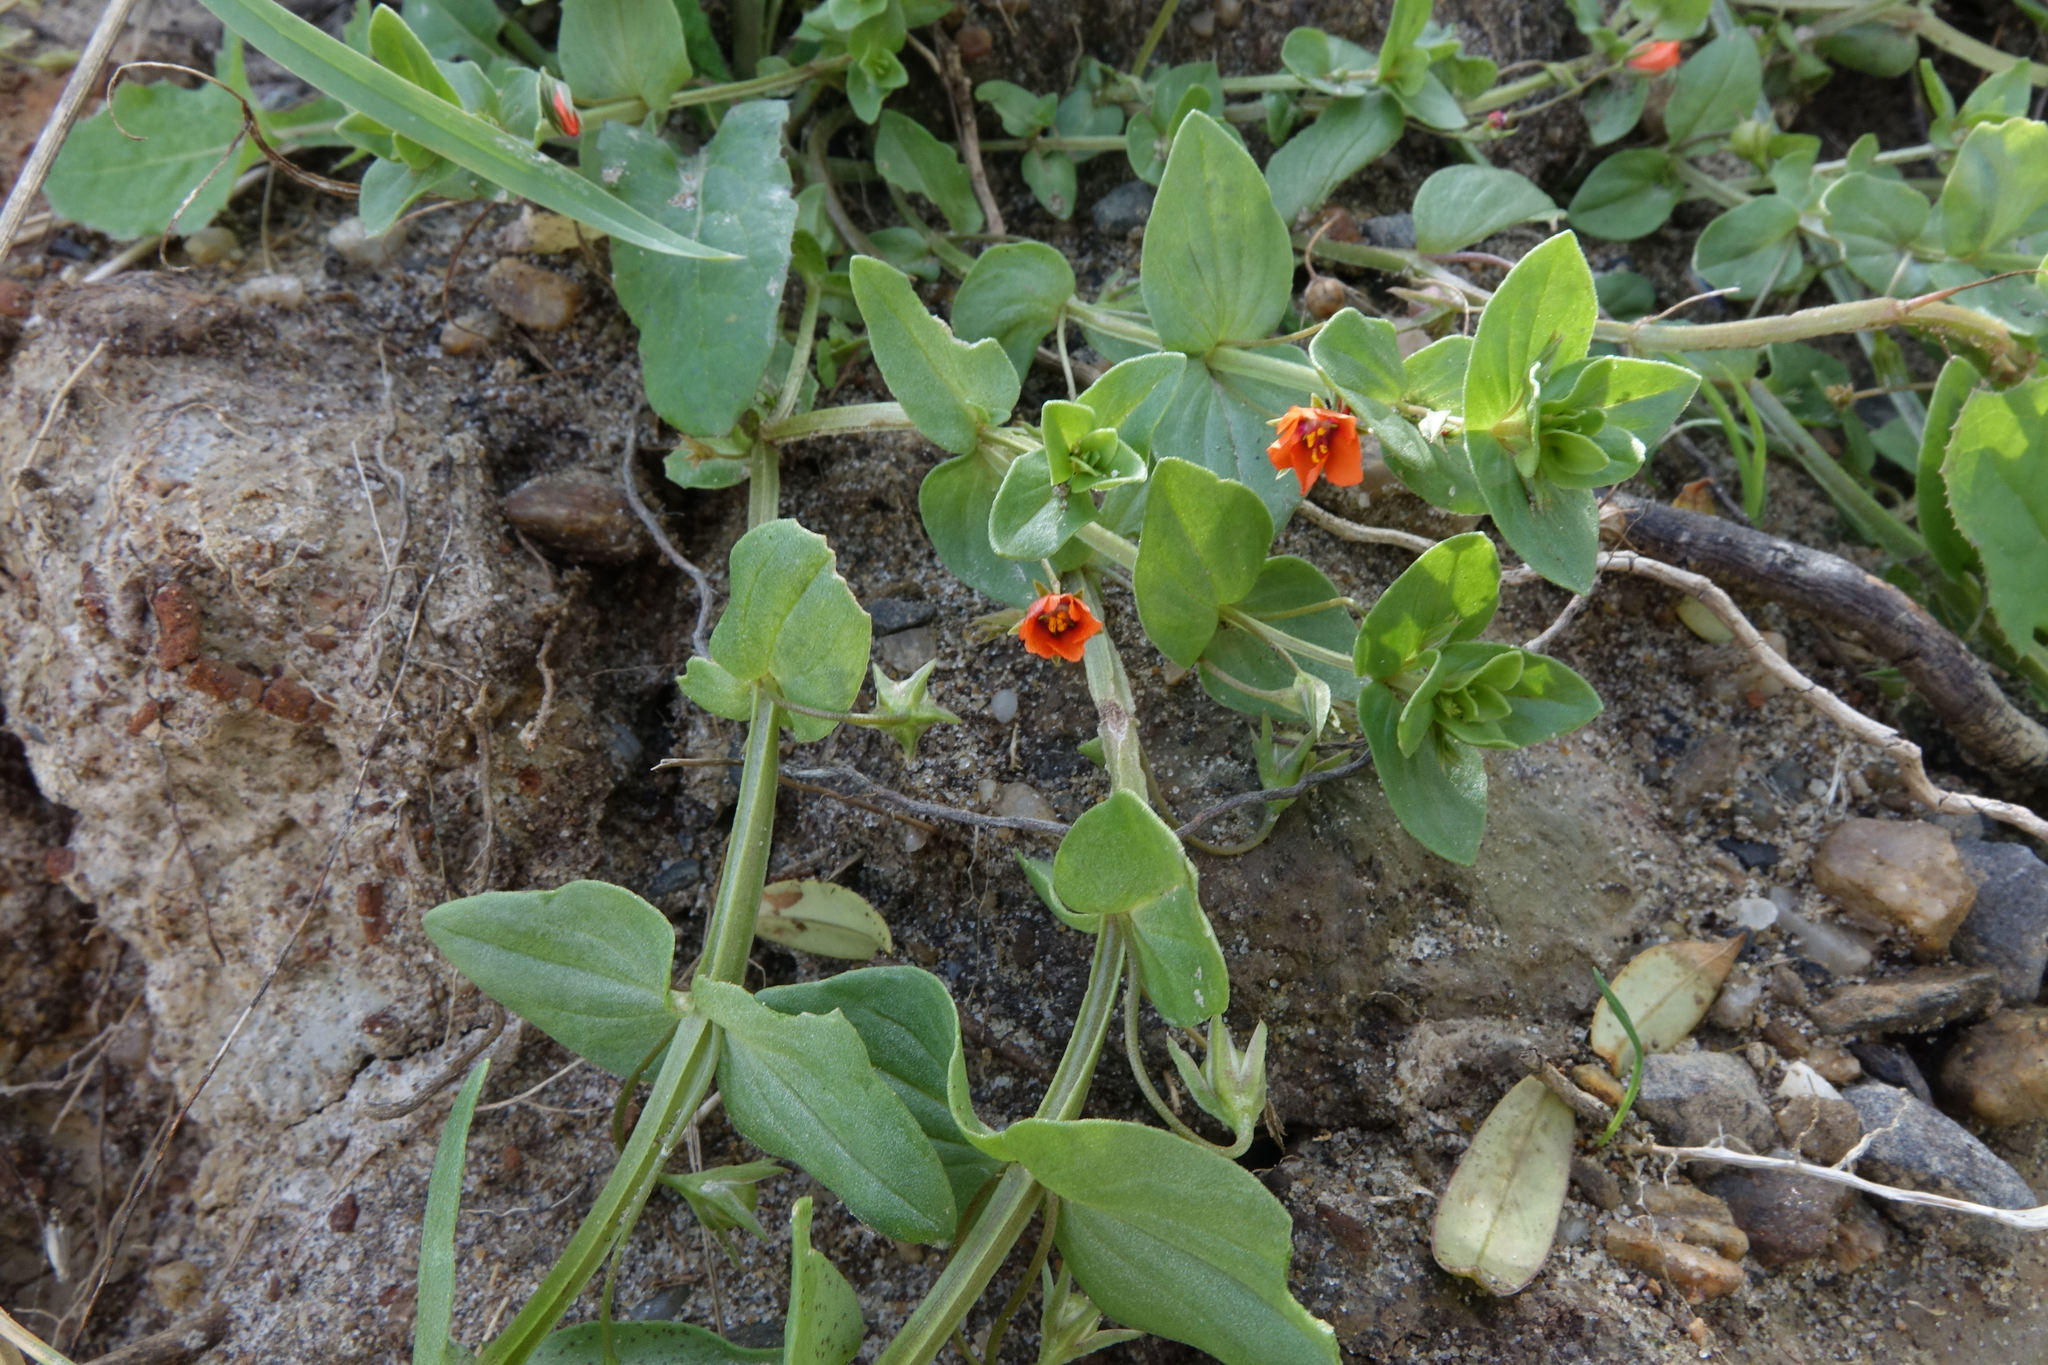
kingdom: Plantae
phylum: Tracheophyta
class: Magnoliopsida
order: Ericales
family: Primulaceae
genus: Lysimachia
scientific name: Lysimachia arvensis
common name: Scarlet pimpernel
